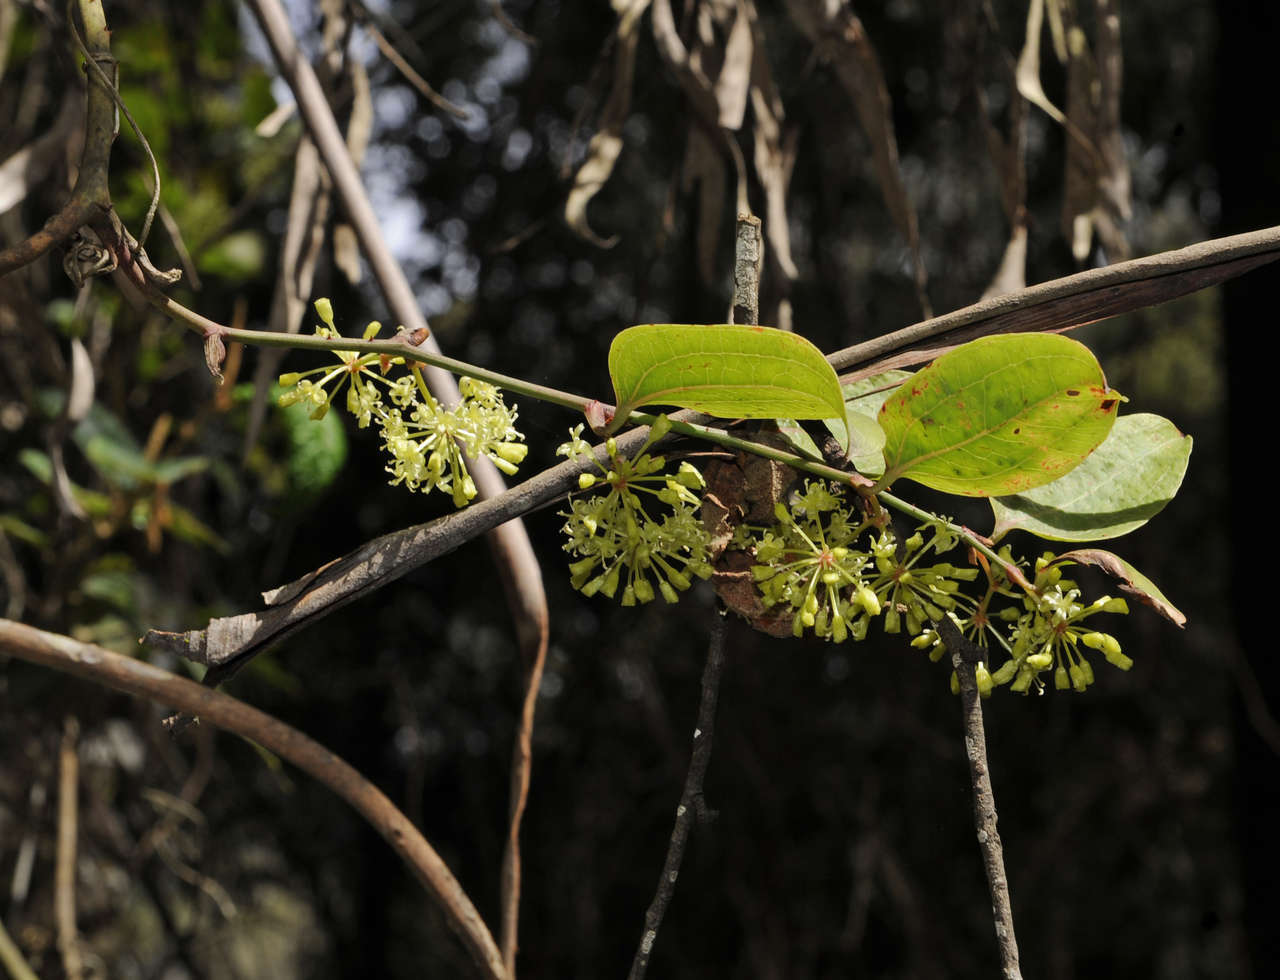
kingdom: Plantae
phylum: Tracheophyta
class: Liliopsida
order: Liliales
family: Smilacaceae
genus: Smilax
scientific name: Smilax australis
